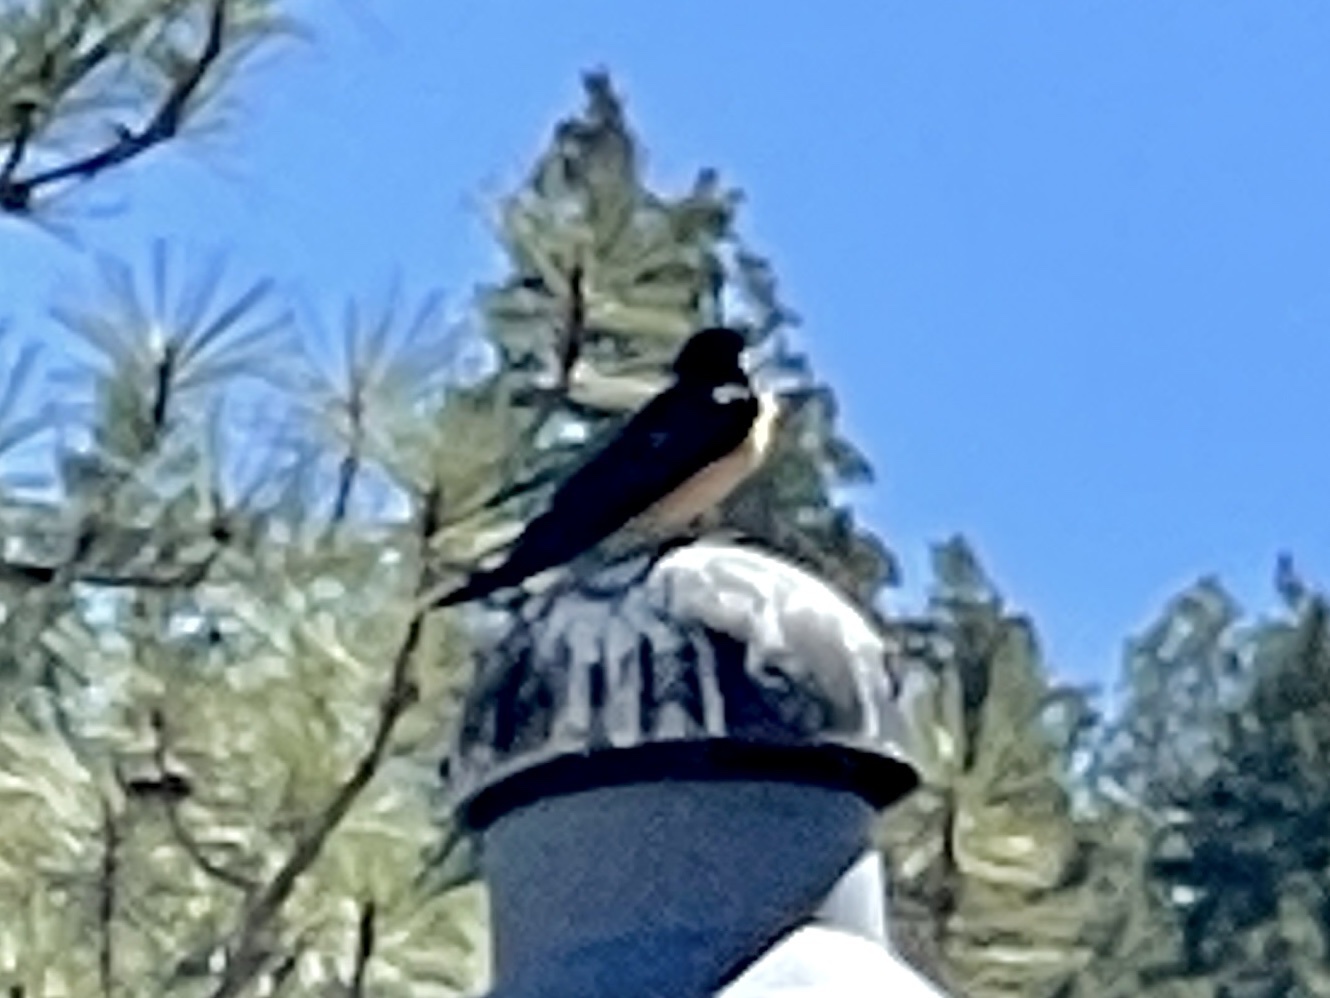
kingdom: Animalia
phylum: Chordata
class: Aves
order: Passeriformes
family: Hirundinidae
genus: Hirundo
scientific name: Hirundo rustica
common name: Barn swallow
